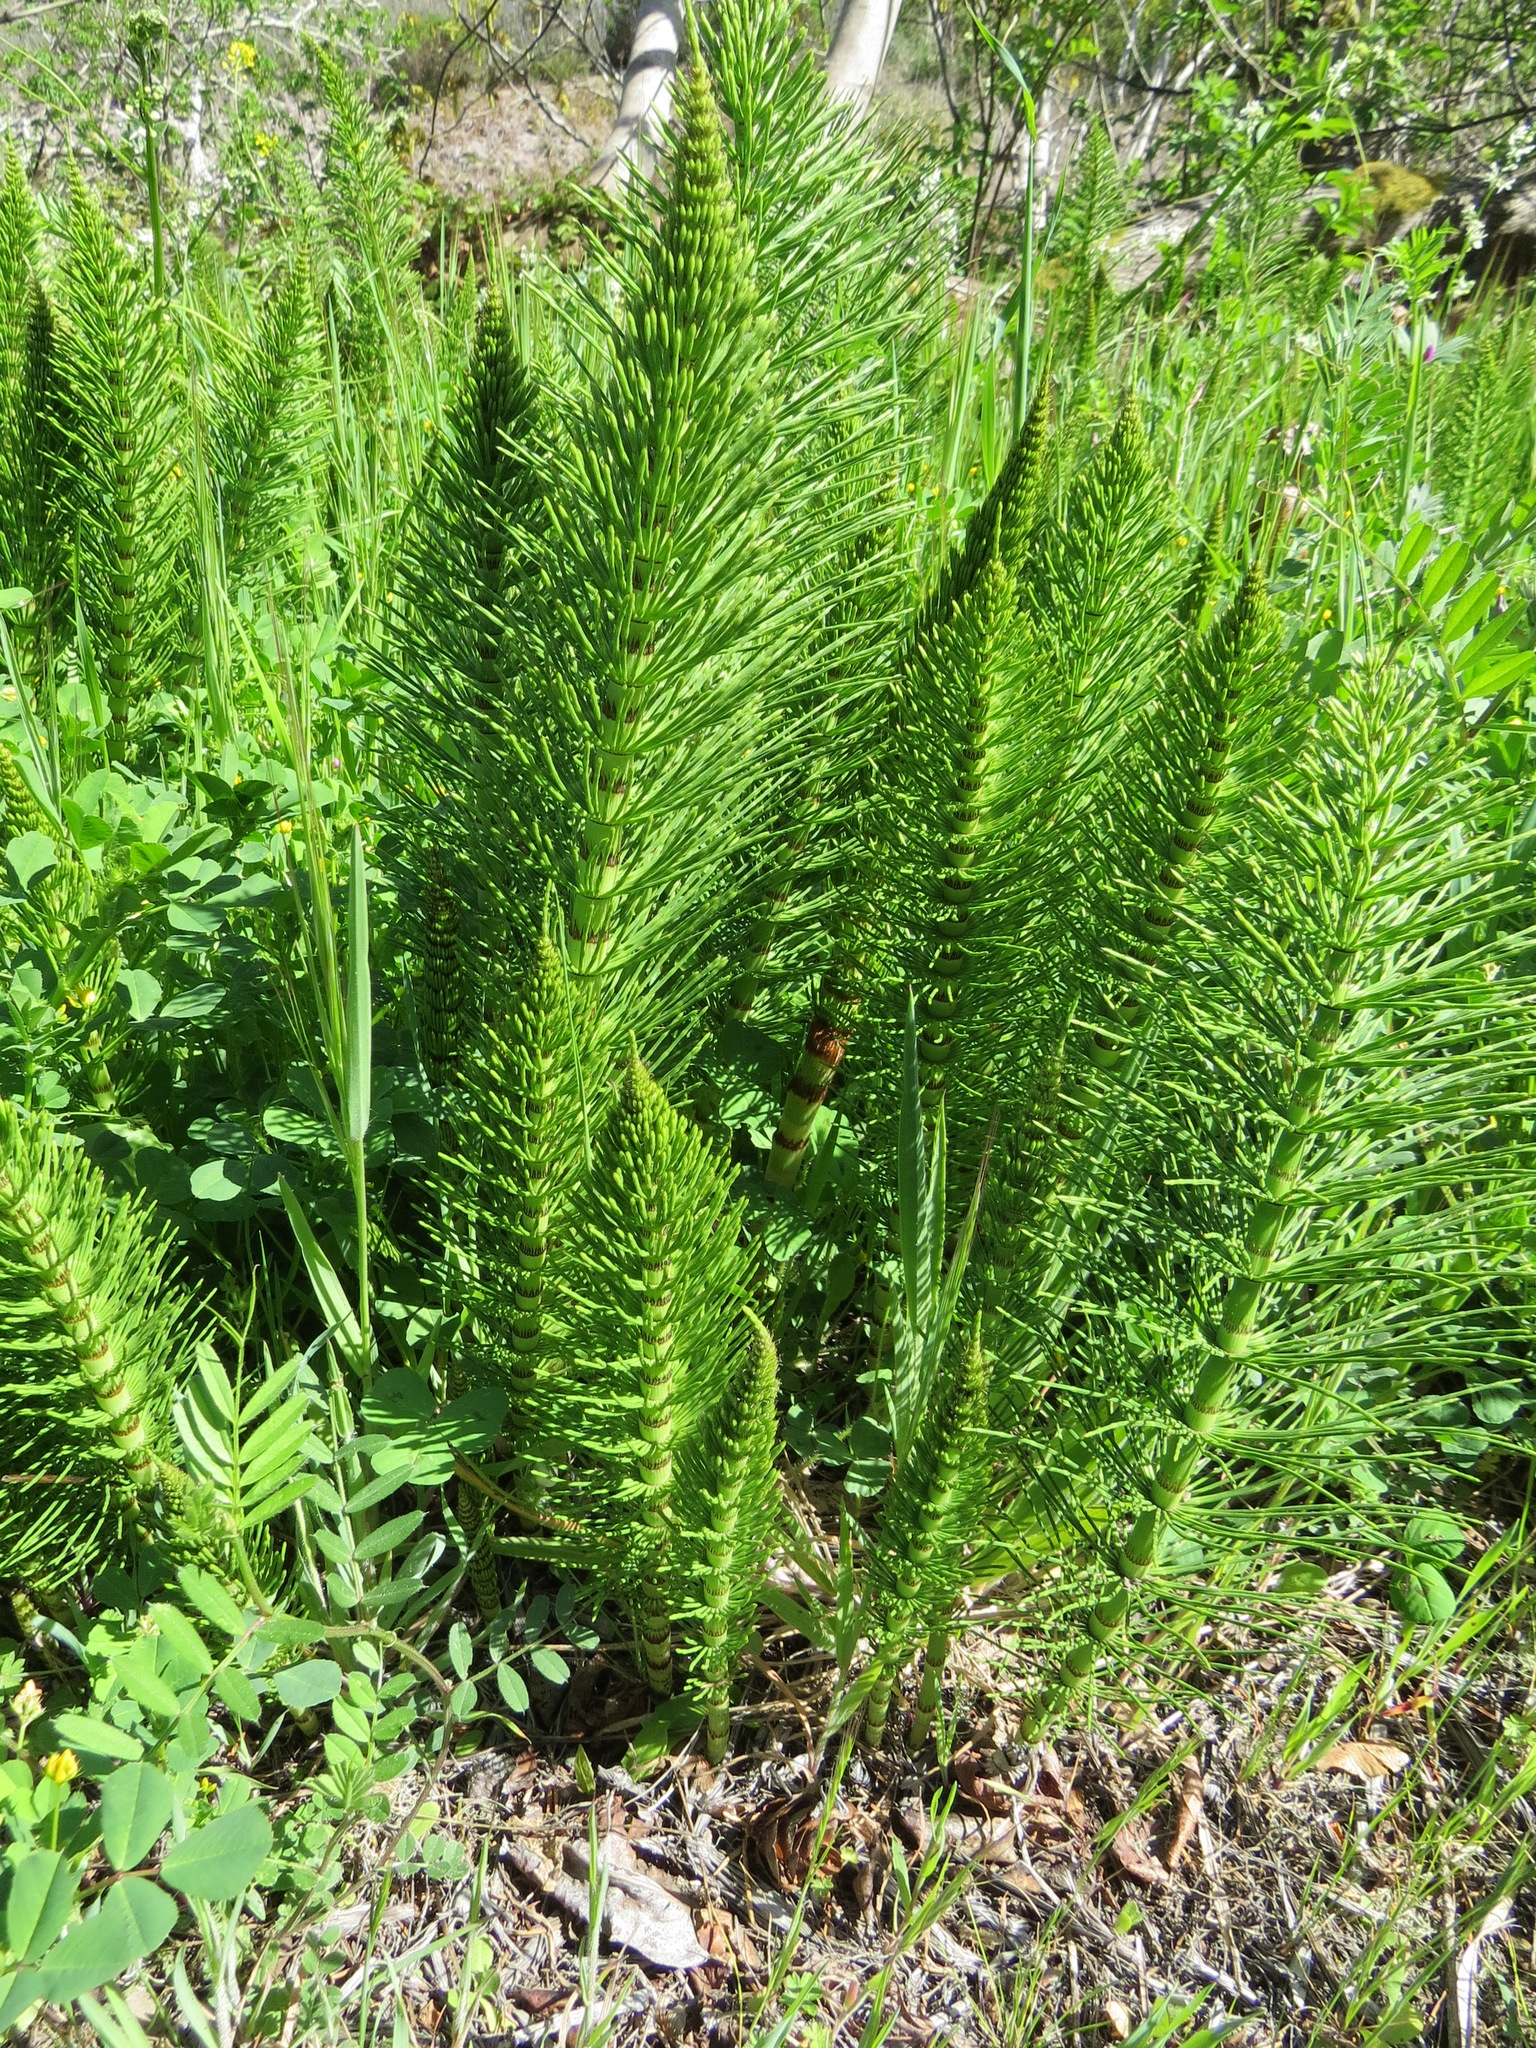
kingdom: Plantae
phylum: Tracheophyta
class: Polypodiopsida
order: Equisetales
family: Equisetaceae
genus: Equisetum
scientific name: Equisetum telmateia
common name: Great horsetail
